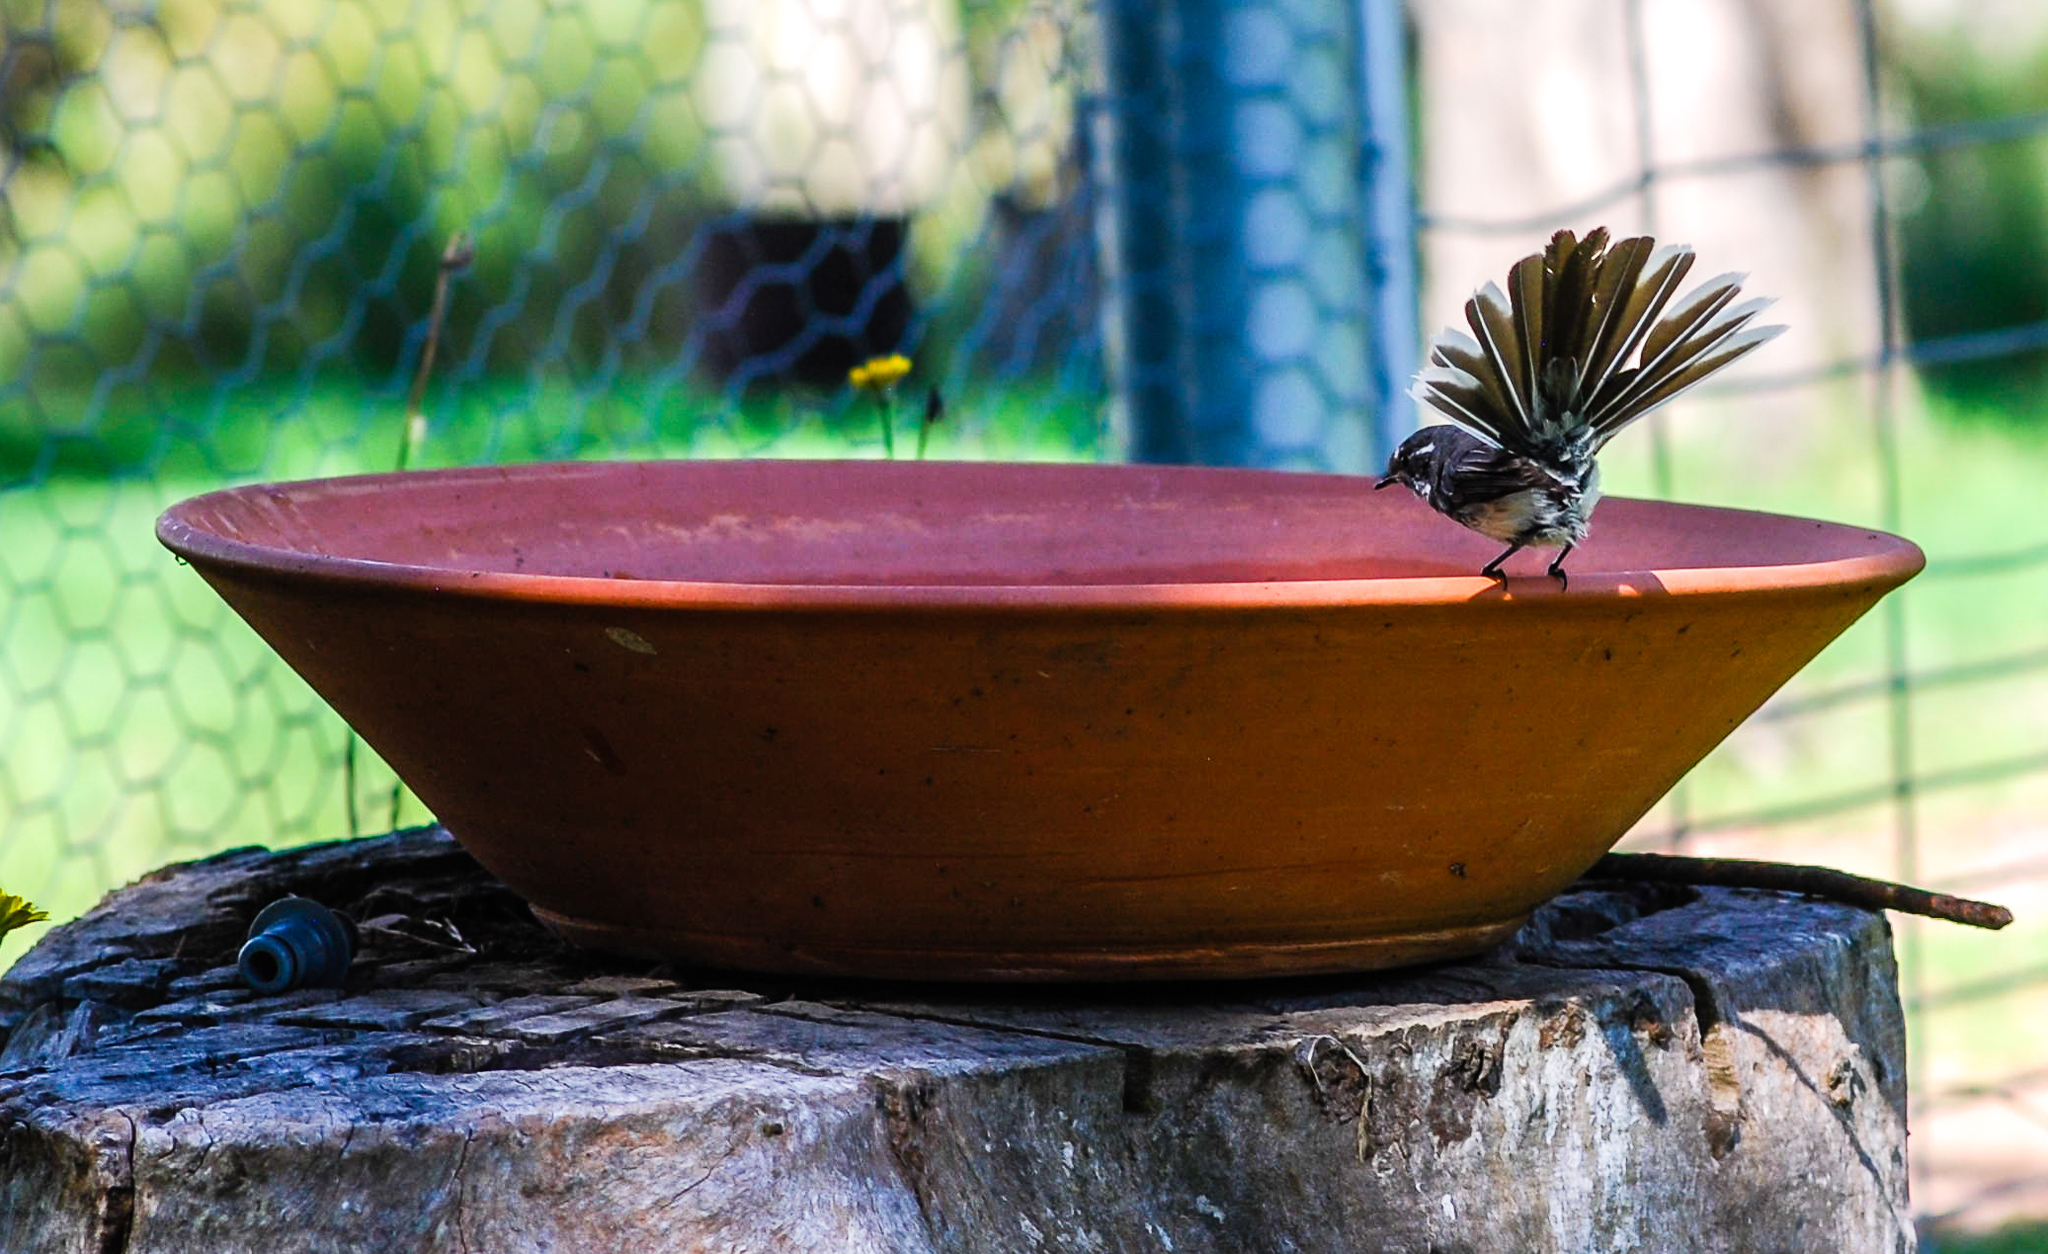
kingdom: Animalia
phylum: Chordata
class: Aves
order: Passeriformes
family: Rhipiduridae
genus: Rhipidura
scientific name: Rhipidura albiscapa
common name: Grey fantail
